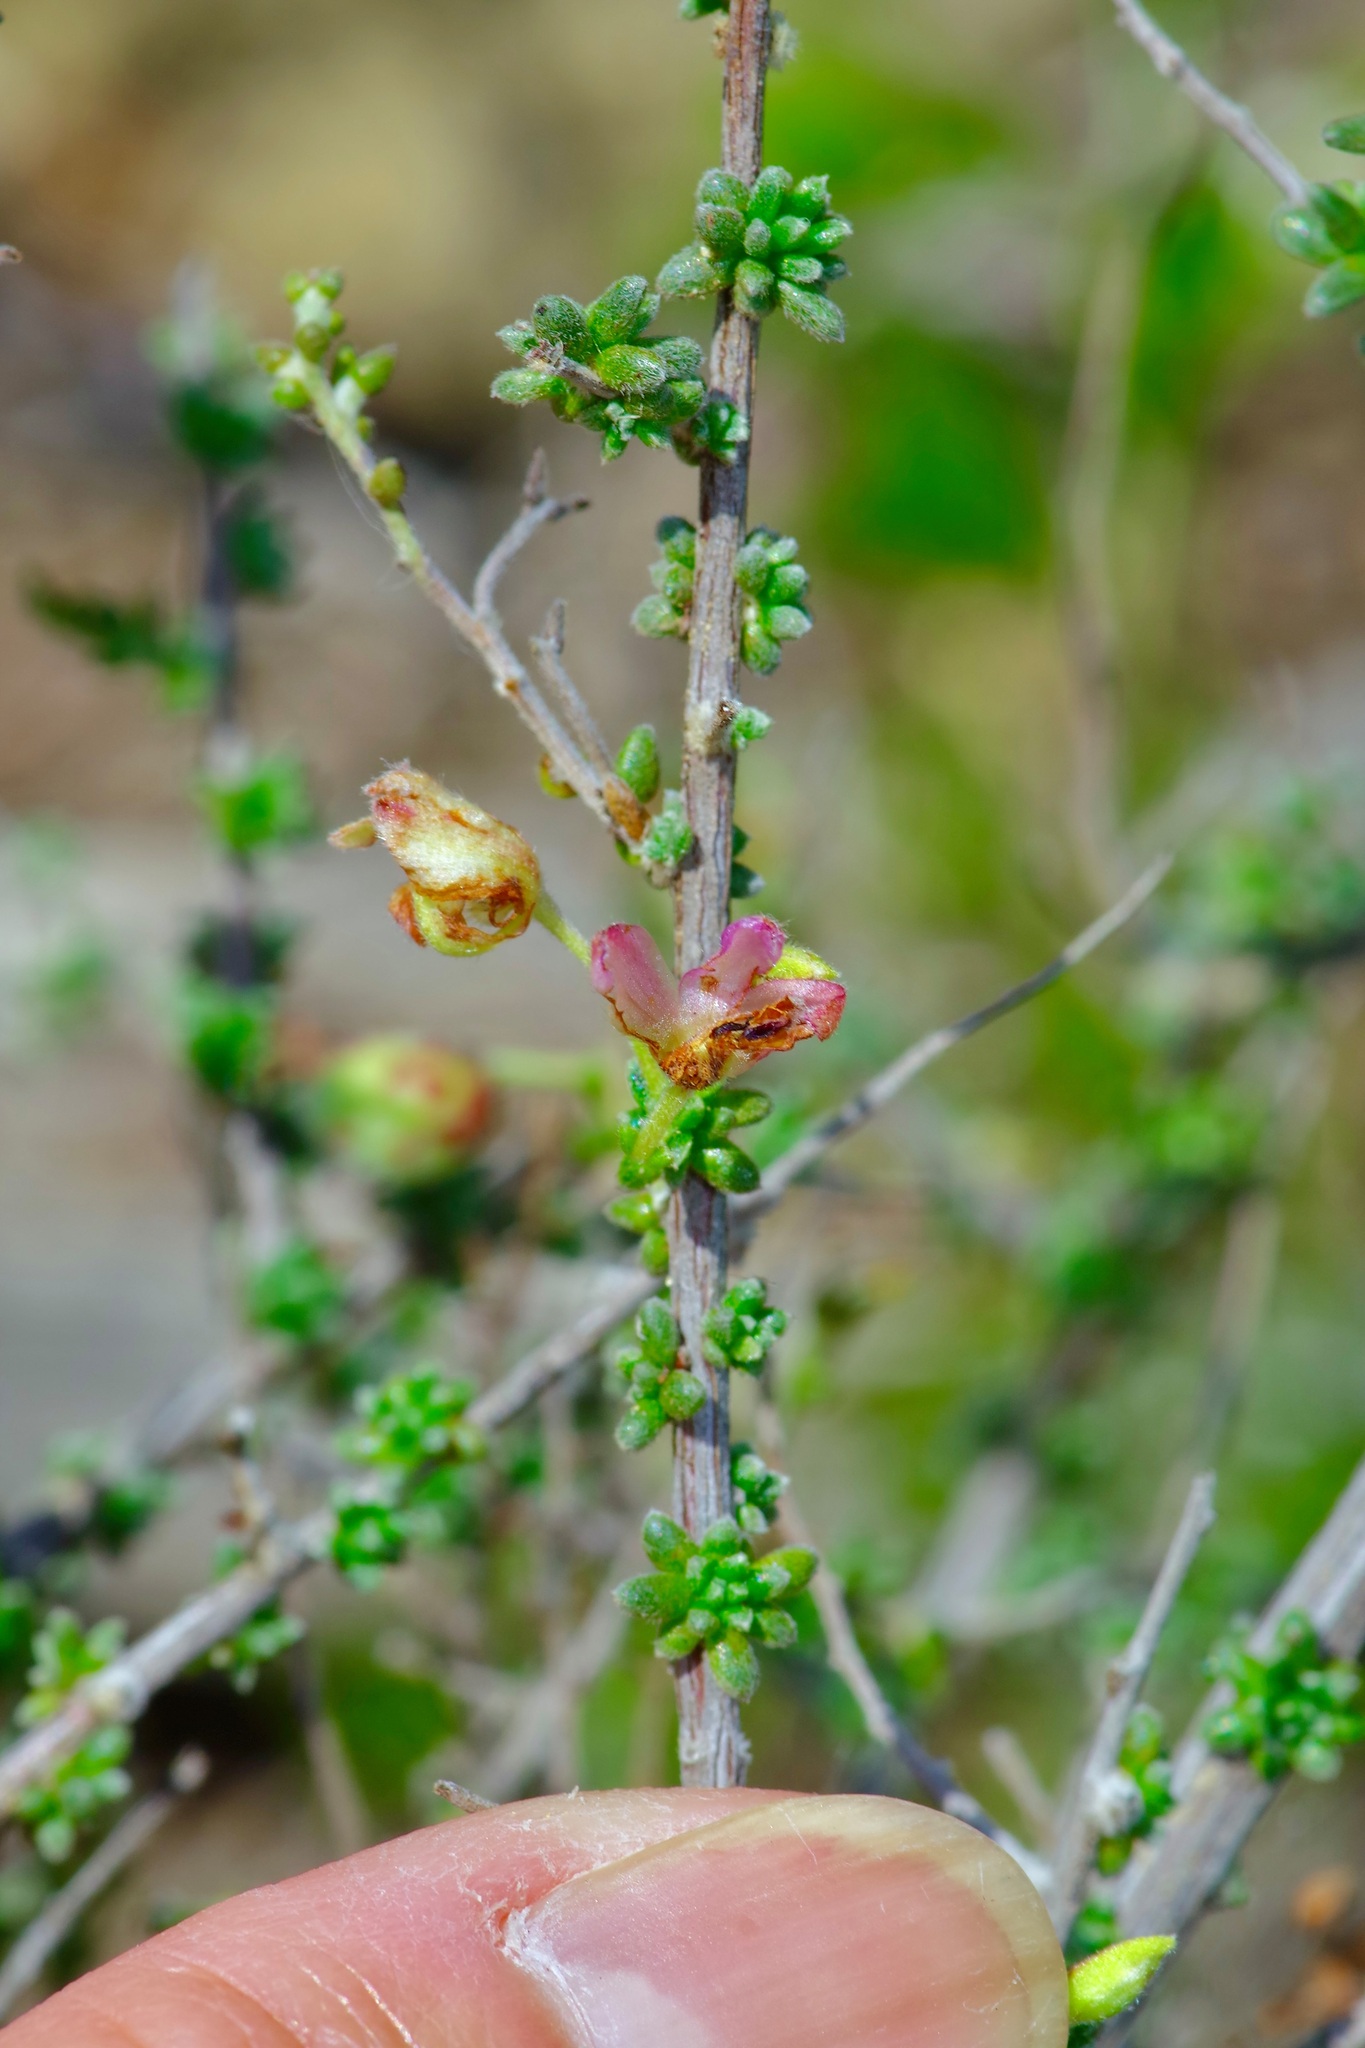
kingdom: Plantae
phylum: Tracheophyta
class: Magnoliopsida
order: Zygophyllales
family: Krameriaceae
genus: Krameria
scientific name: Krameria ramosissima
